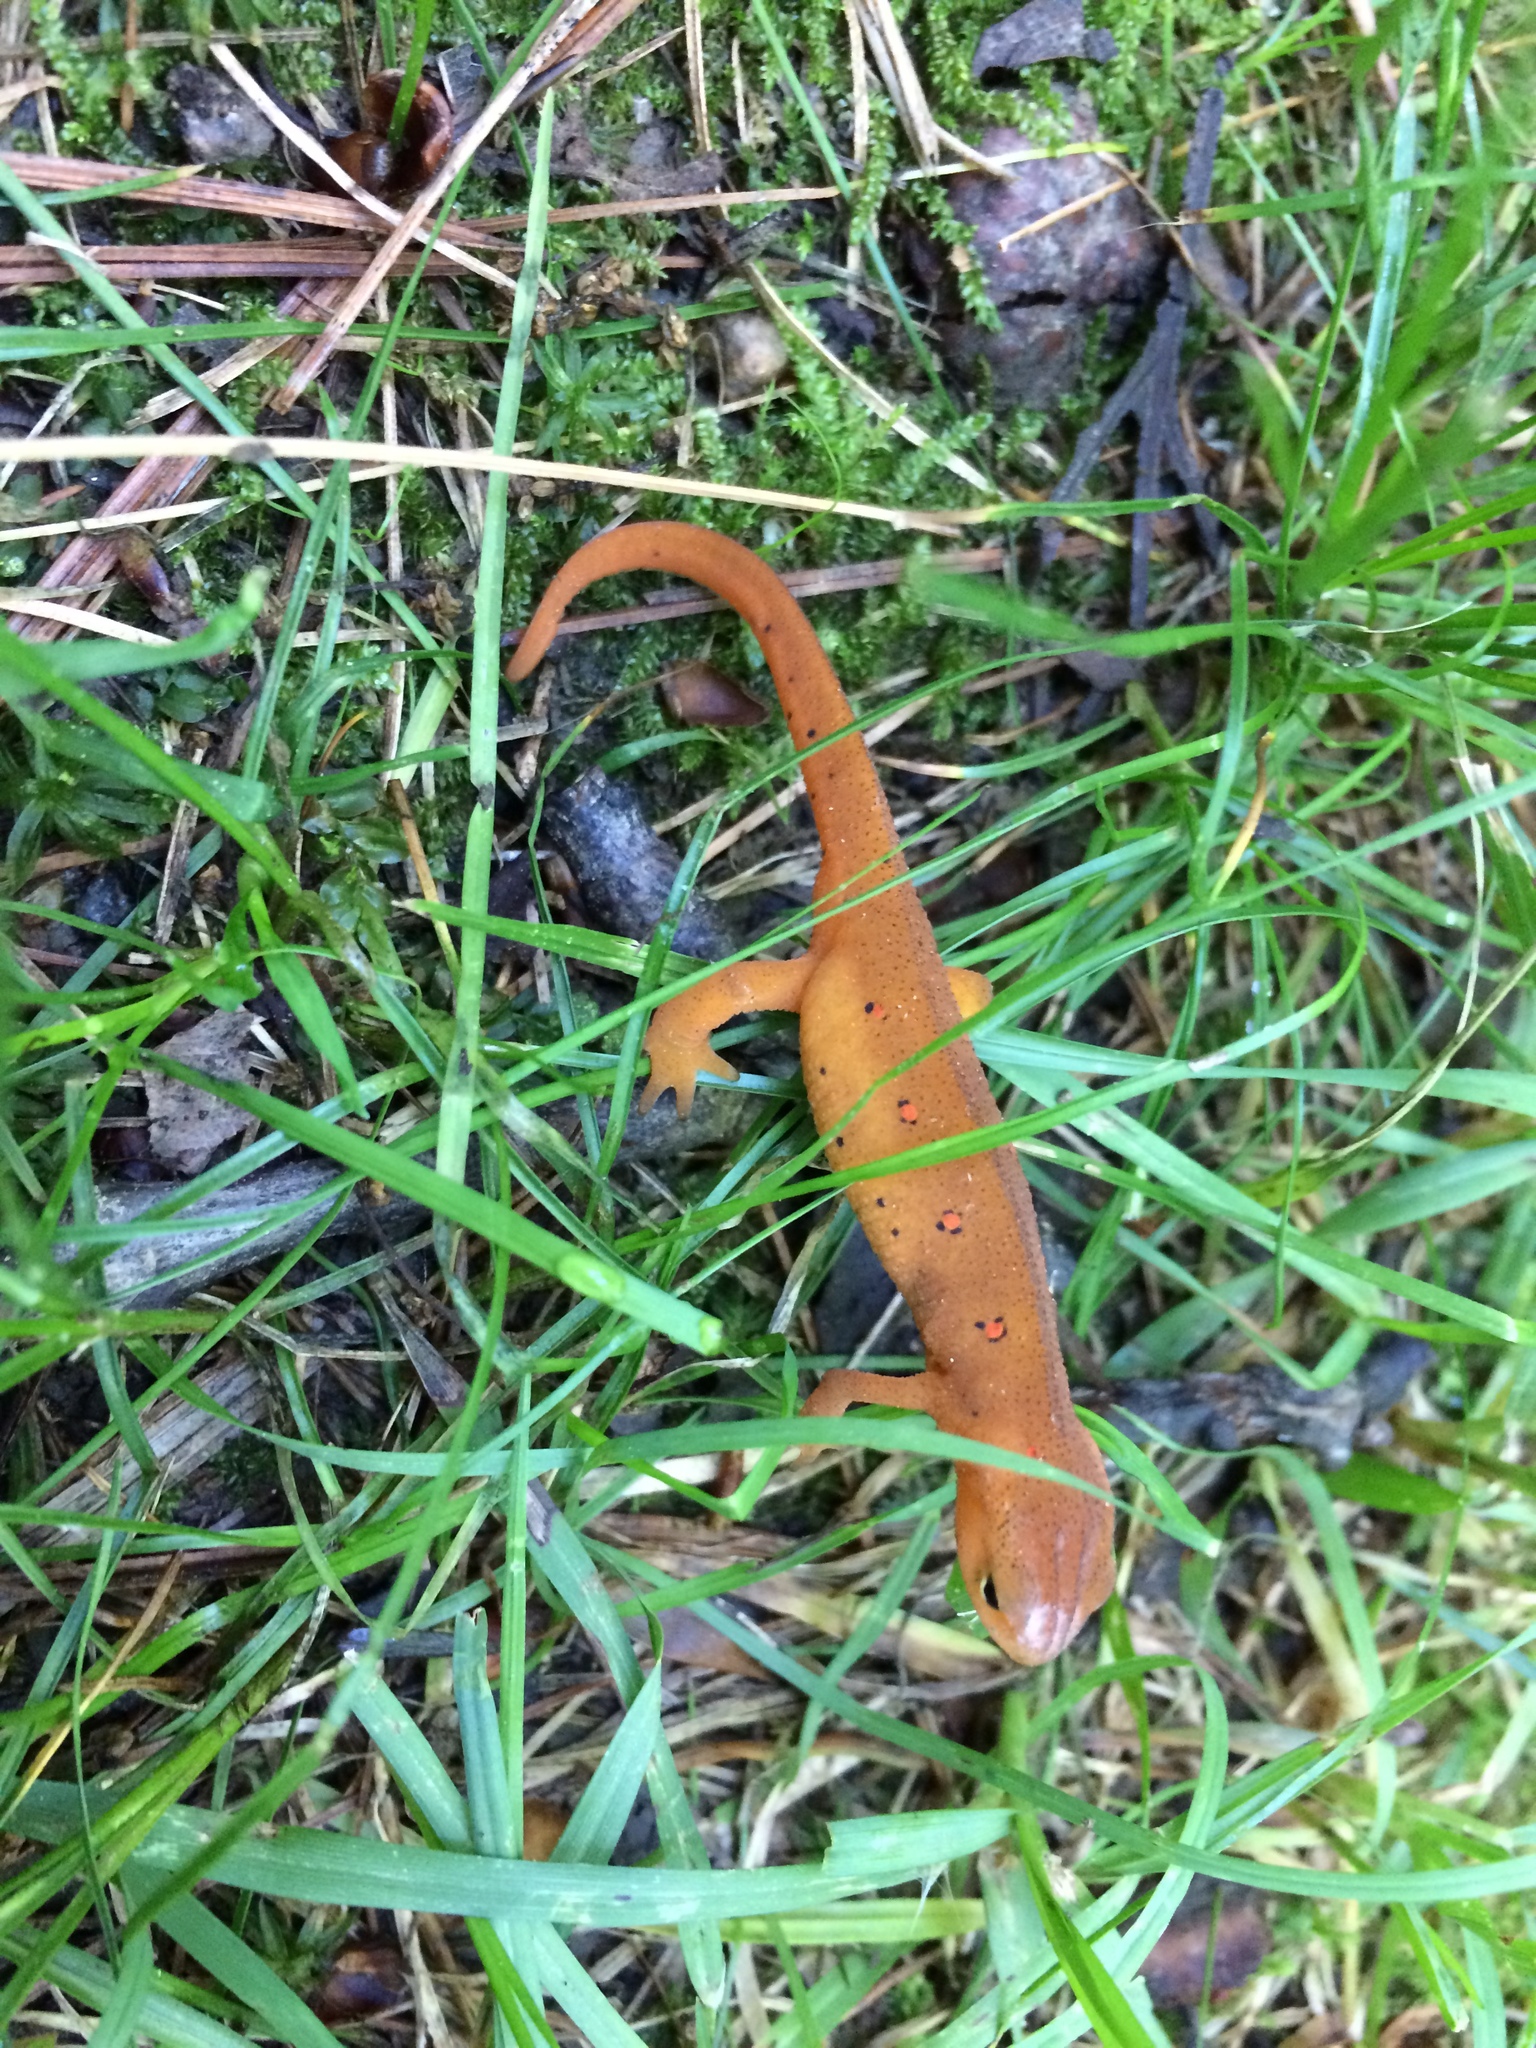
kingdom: Animalia
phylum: Chordata
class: Amphibia
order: Caudata
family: Salamandridae
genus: Notophthalmus
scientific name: Notophthalmus viridescens
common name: Eastern newt
